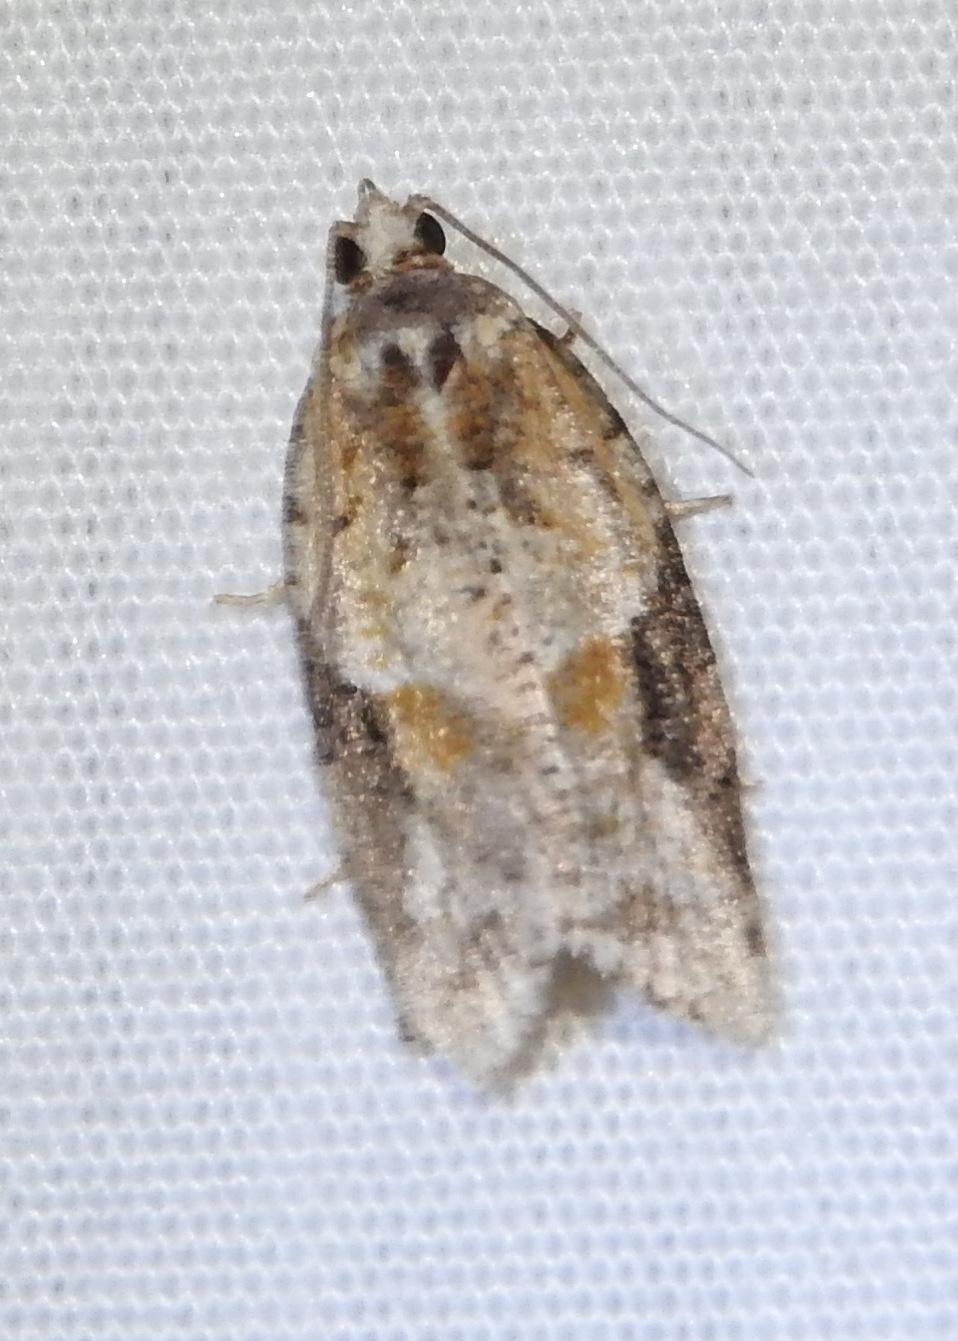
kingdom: Animalia
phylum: Arthropoda
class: Insecta
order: Lepidoptera
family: Tortricidae
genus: Argyrotaenia
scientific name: Argyrotaenia mariana
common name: Gray-banded leafroller moth
